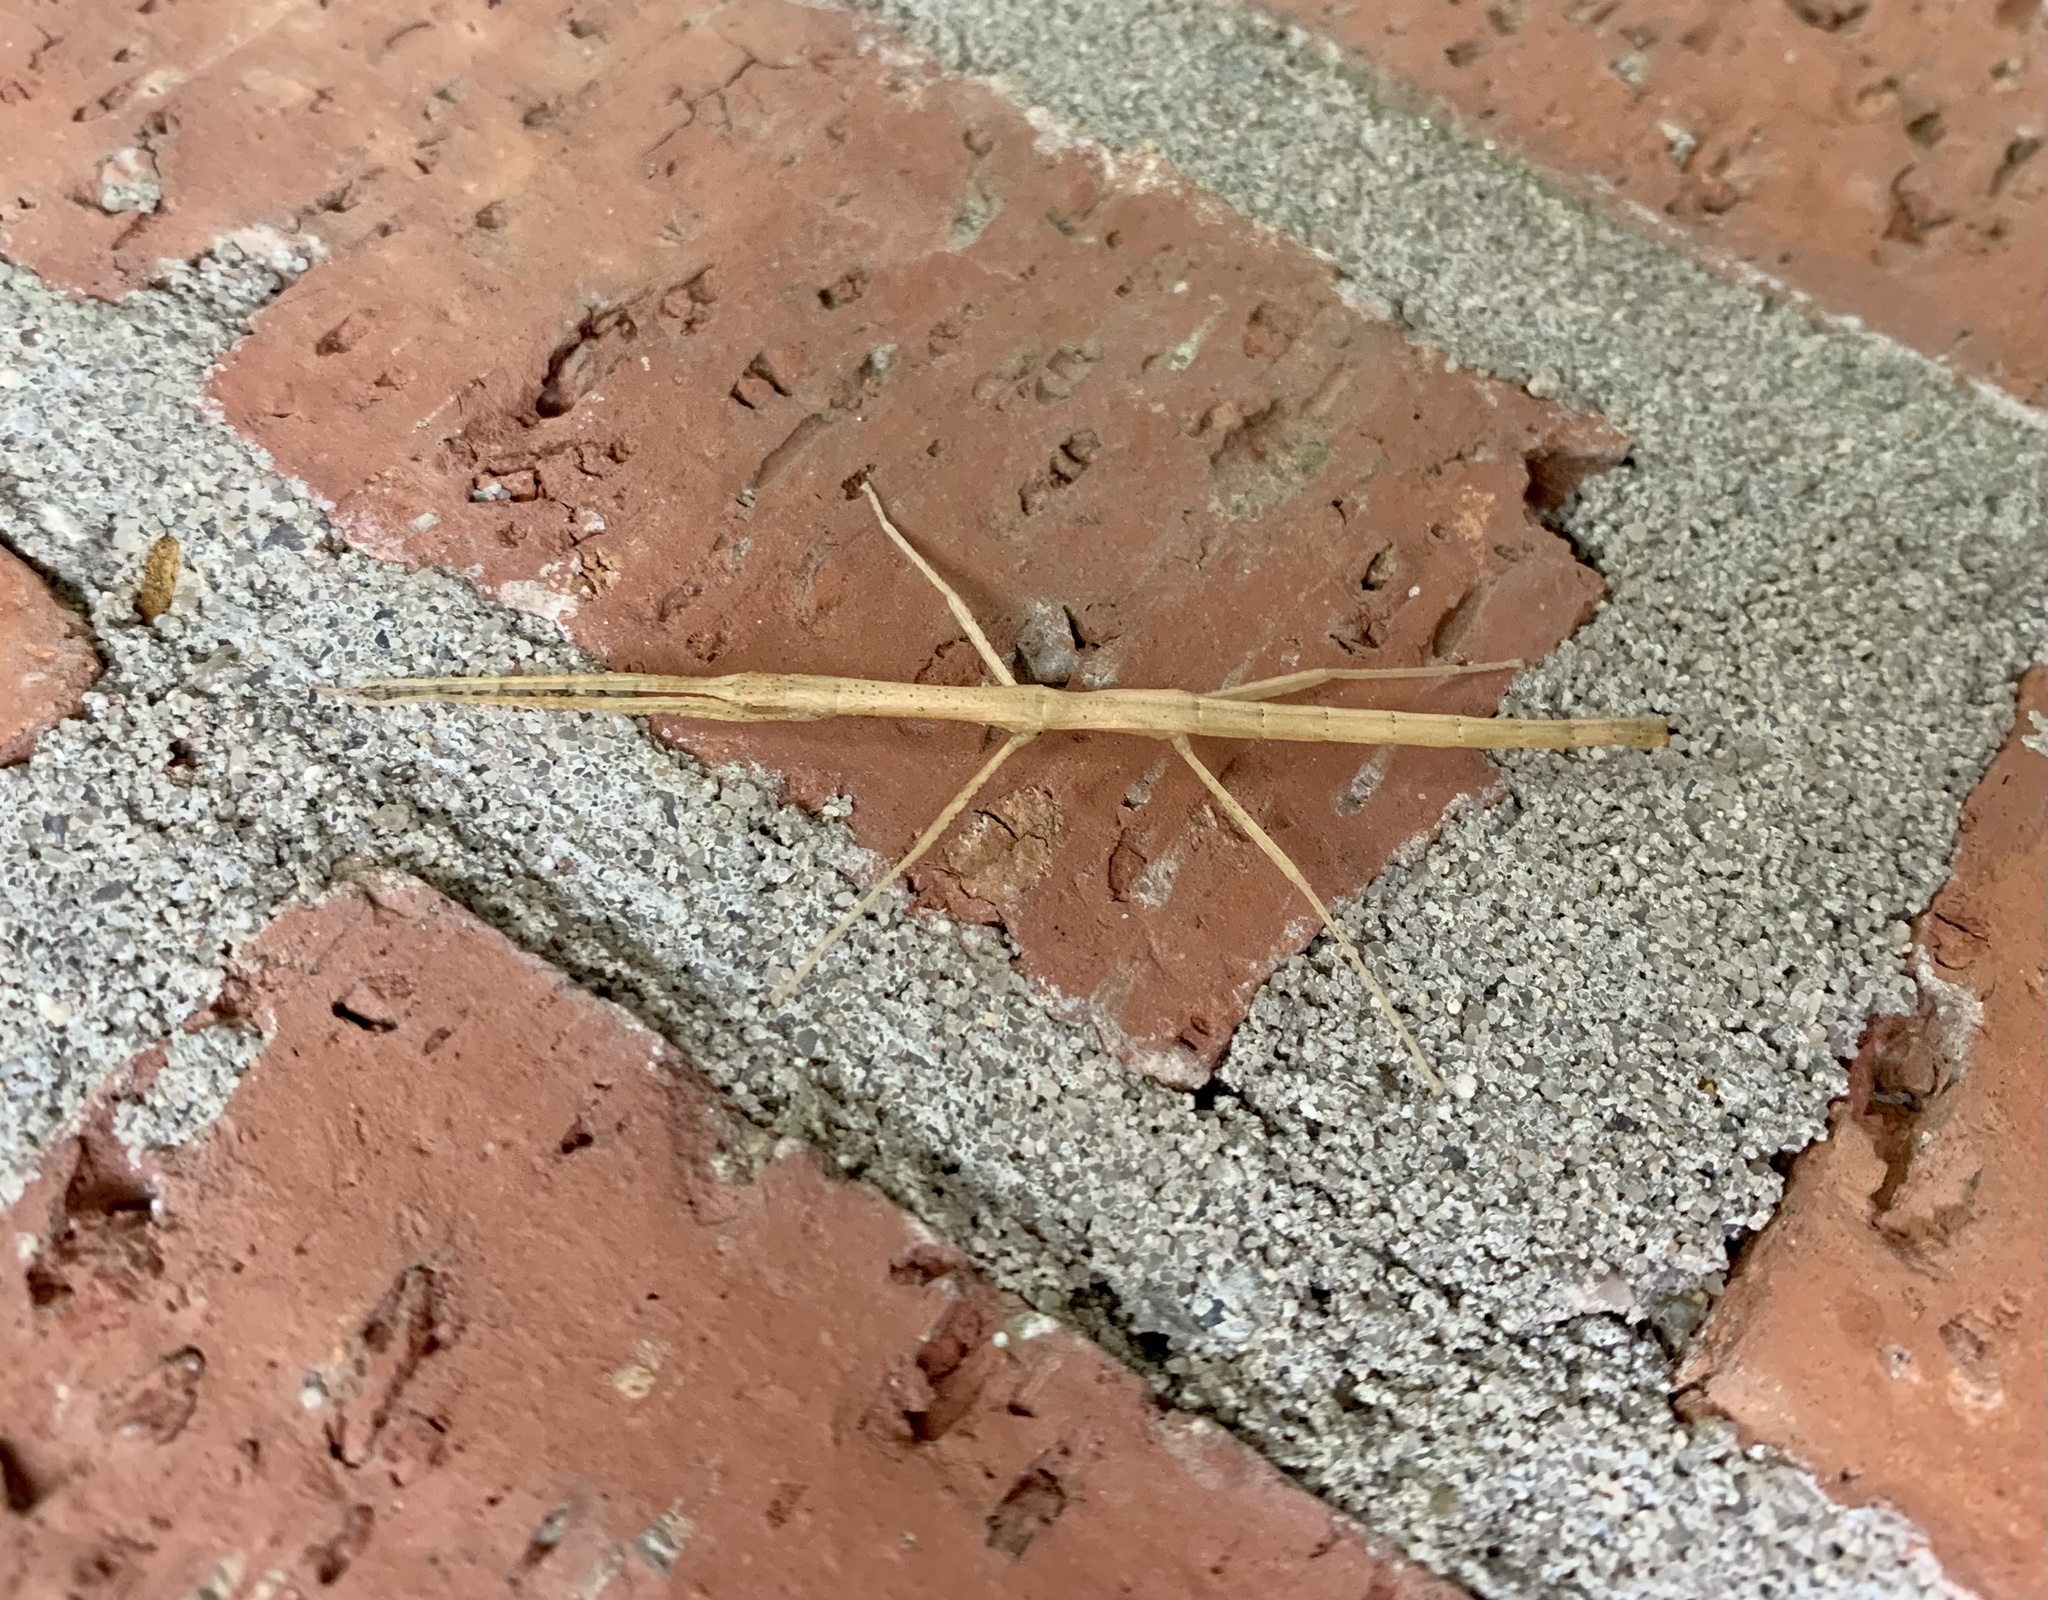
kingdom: Animalia
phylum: Arthropoda
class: Insecta
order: Phasmida
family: Lonchodidae
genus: Carausius
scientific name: Carausius morosus
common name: Indian stick insect
